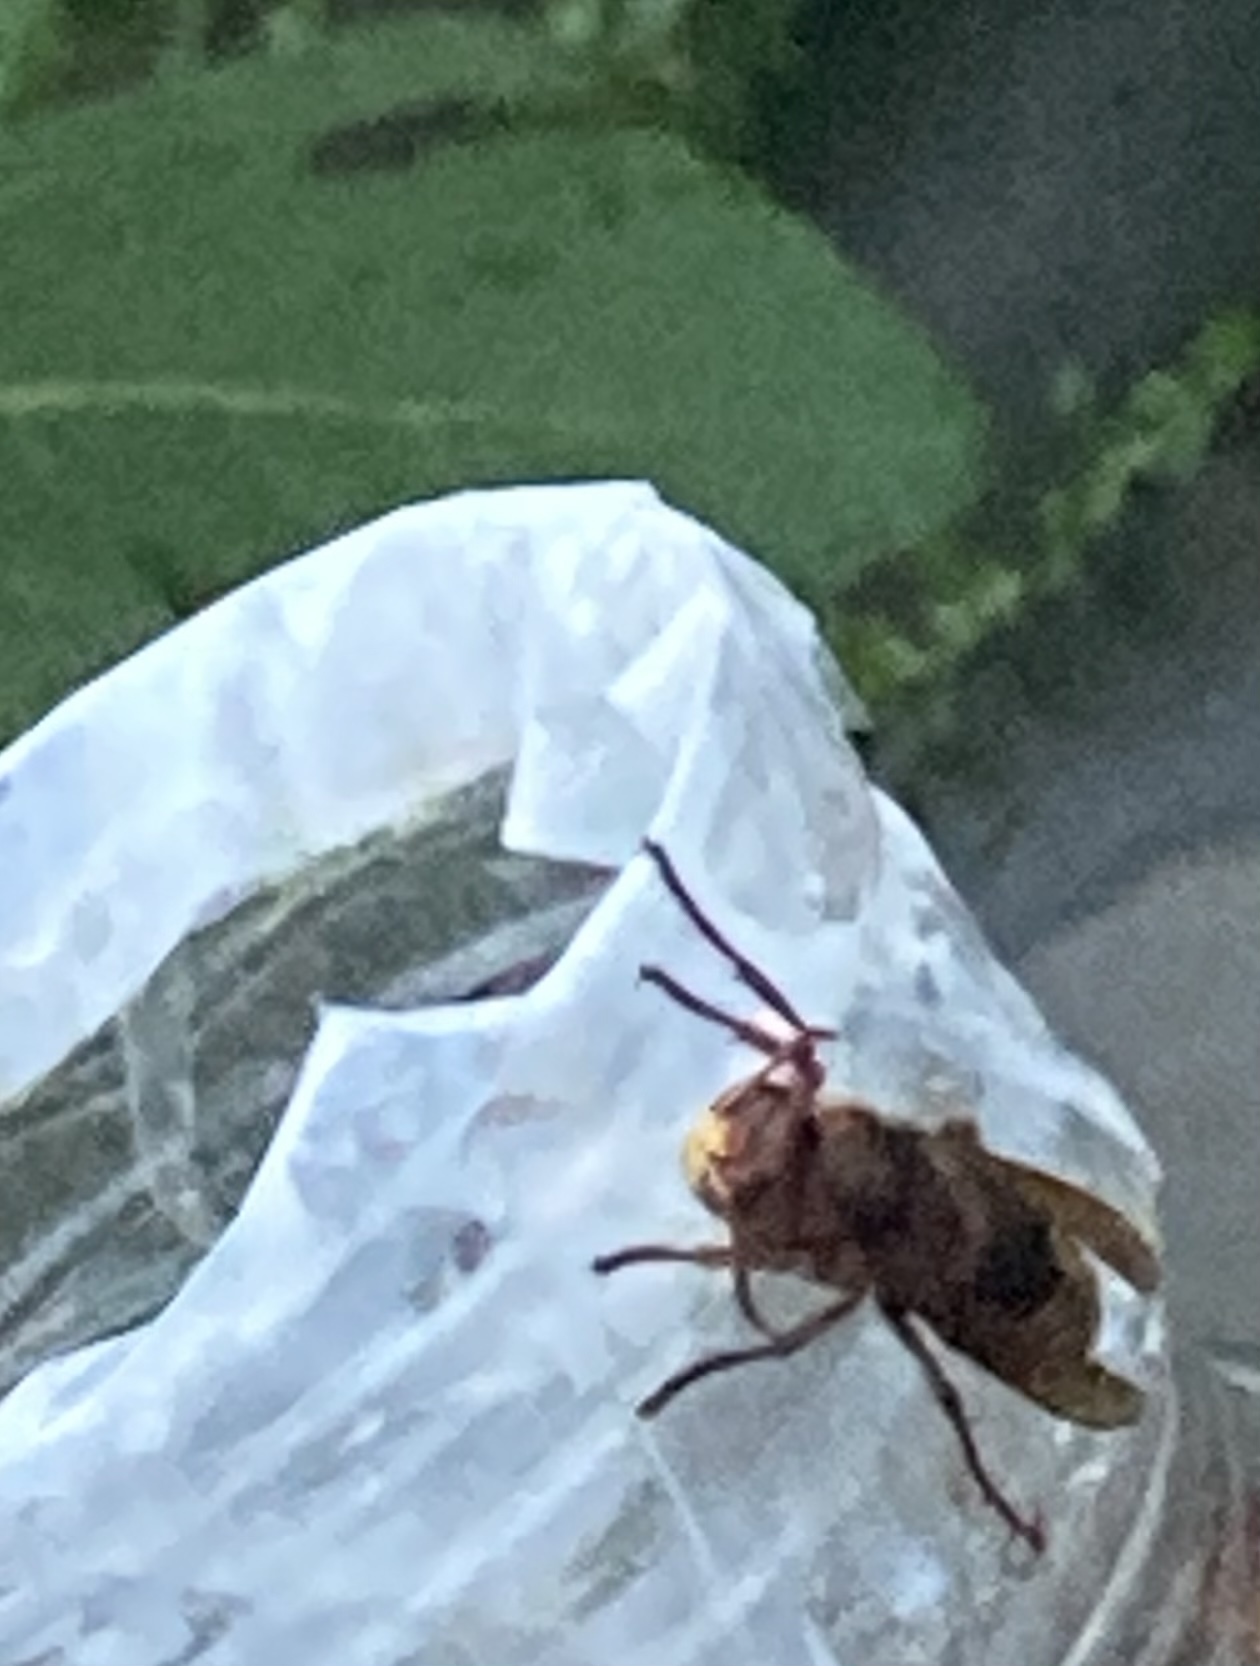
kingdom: Animalia
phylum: Arthropoda
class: Insecta
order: Hymenoptera
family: Vespidae
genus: Vespa
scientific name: Vespa crabro
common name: Hornet
